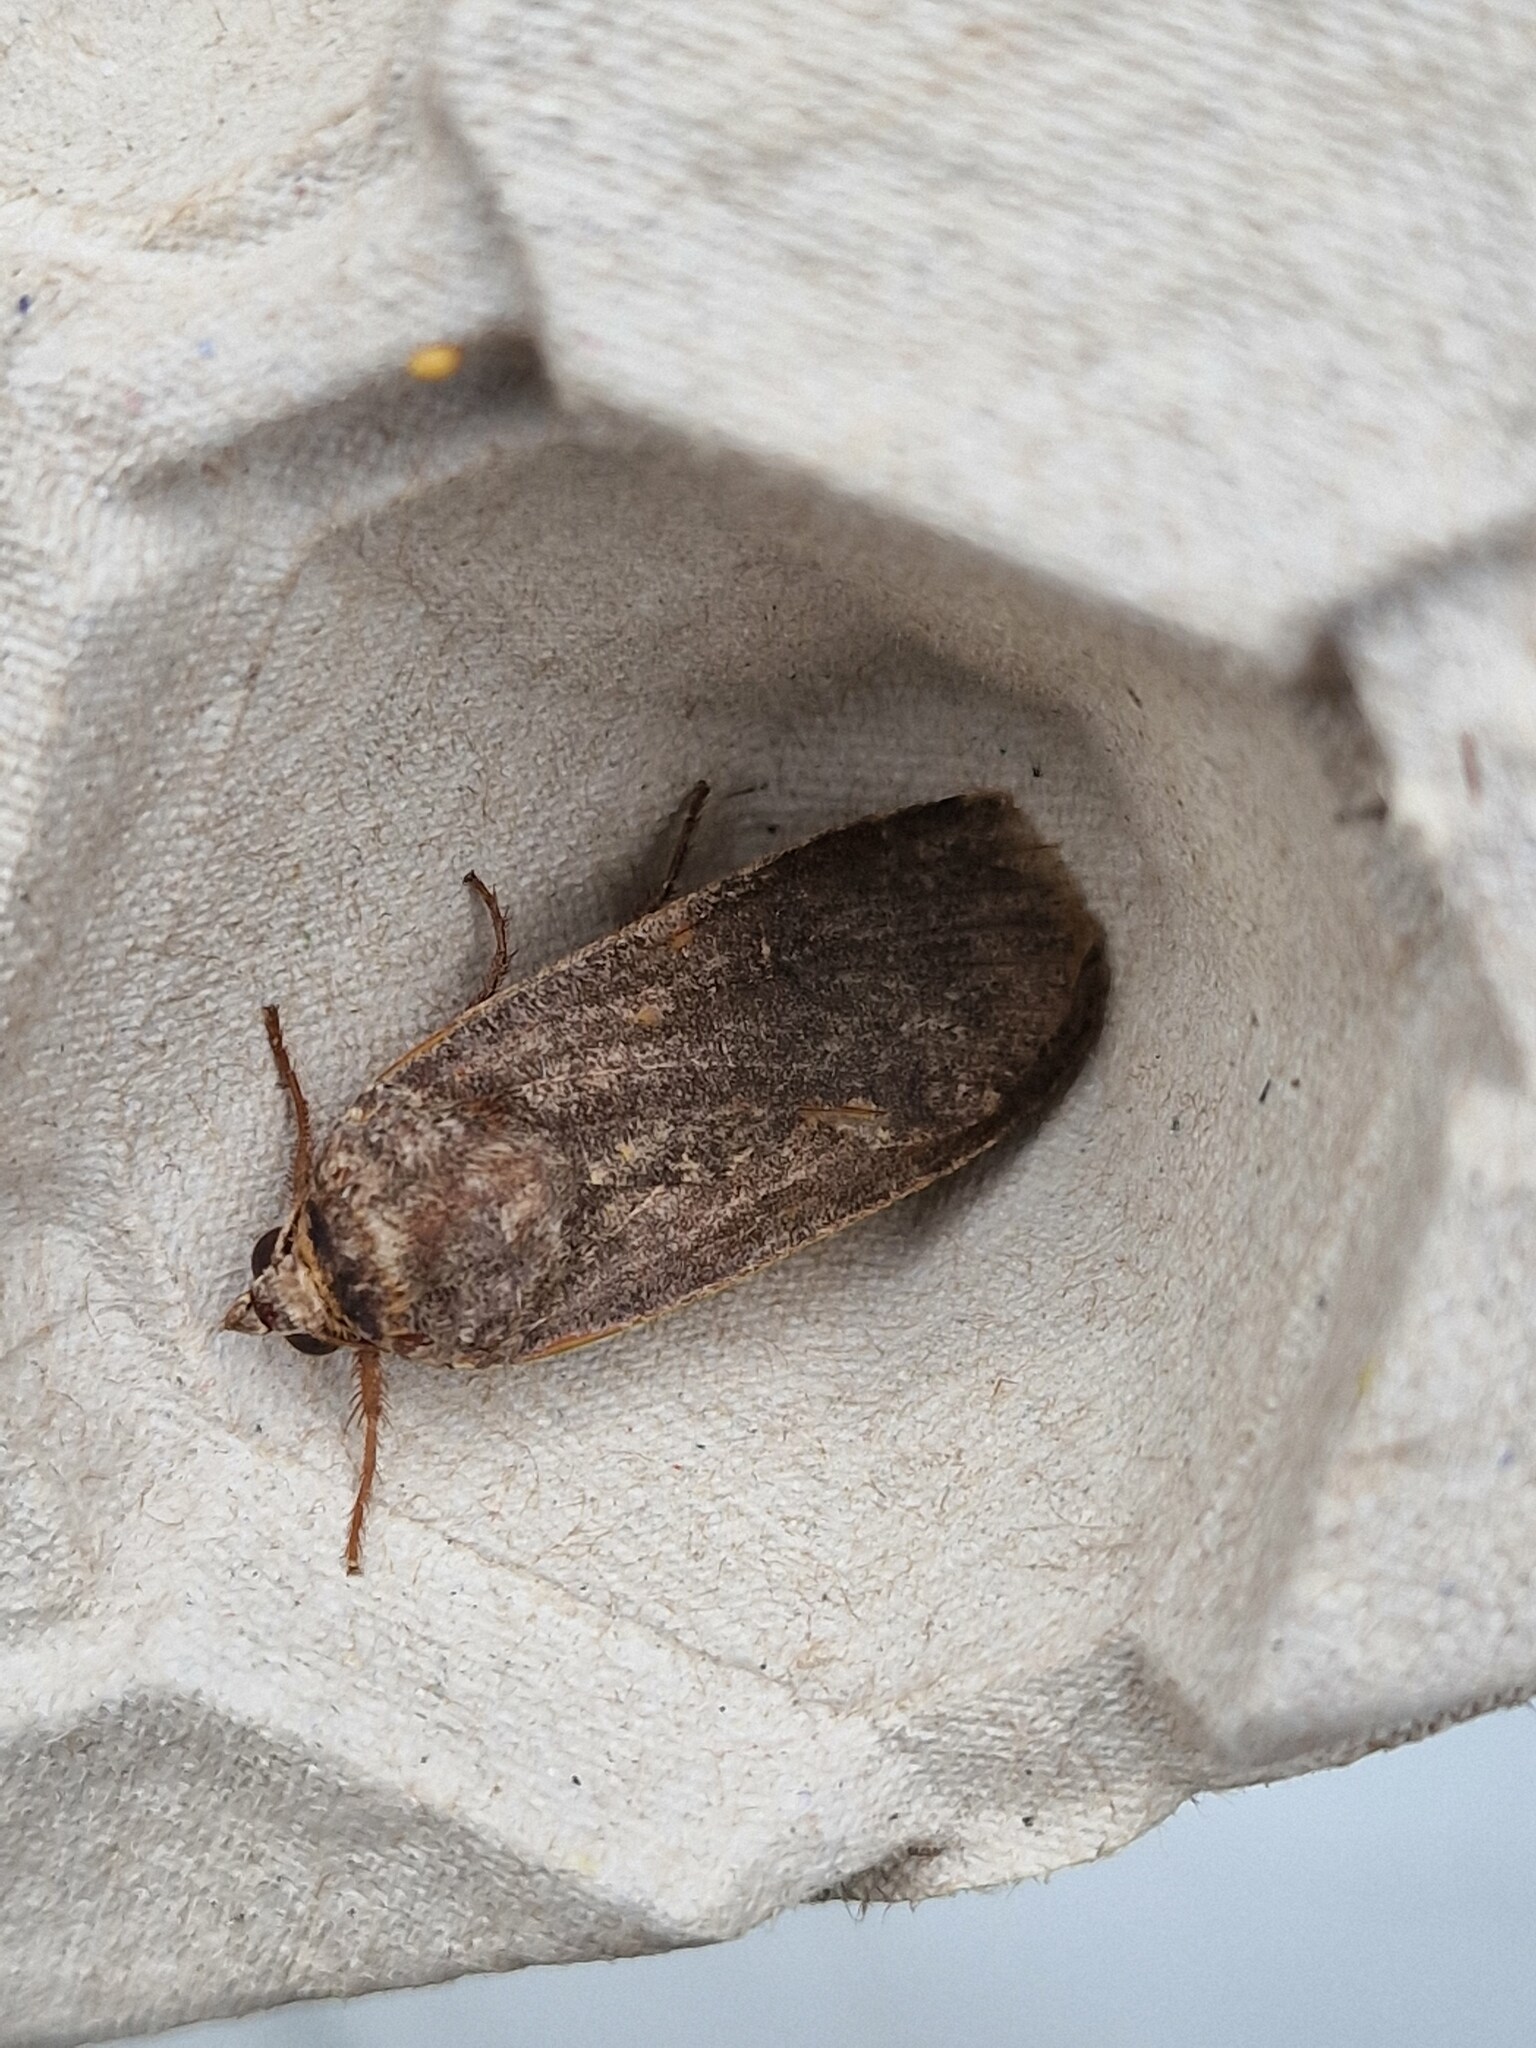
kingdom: Animalia
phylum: Arthropoda
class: Insecta
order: Lepidoptera
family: Noctuidae
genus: Noctua
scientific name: Noctua pronuba
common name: Large yellow underwing
